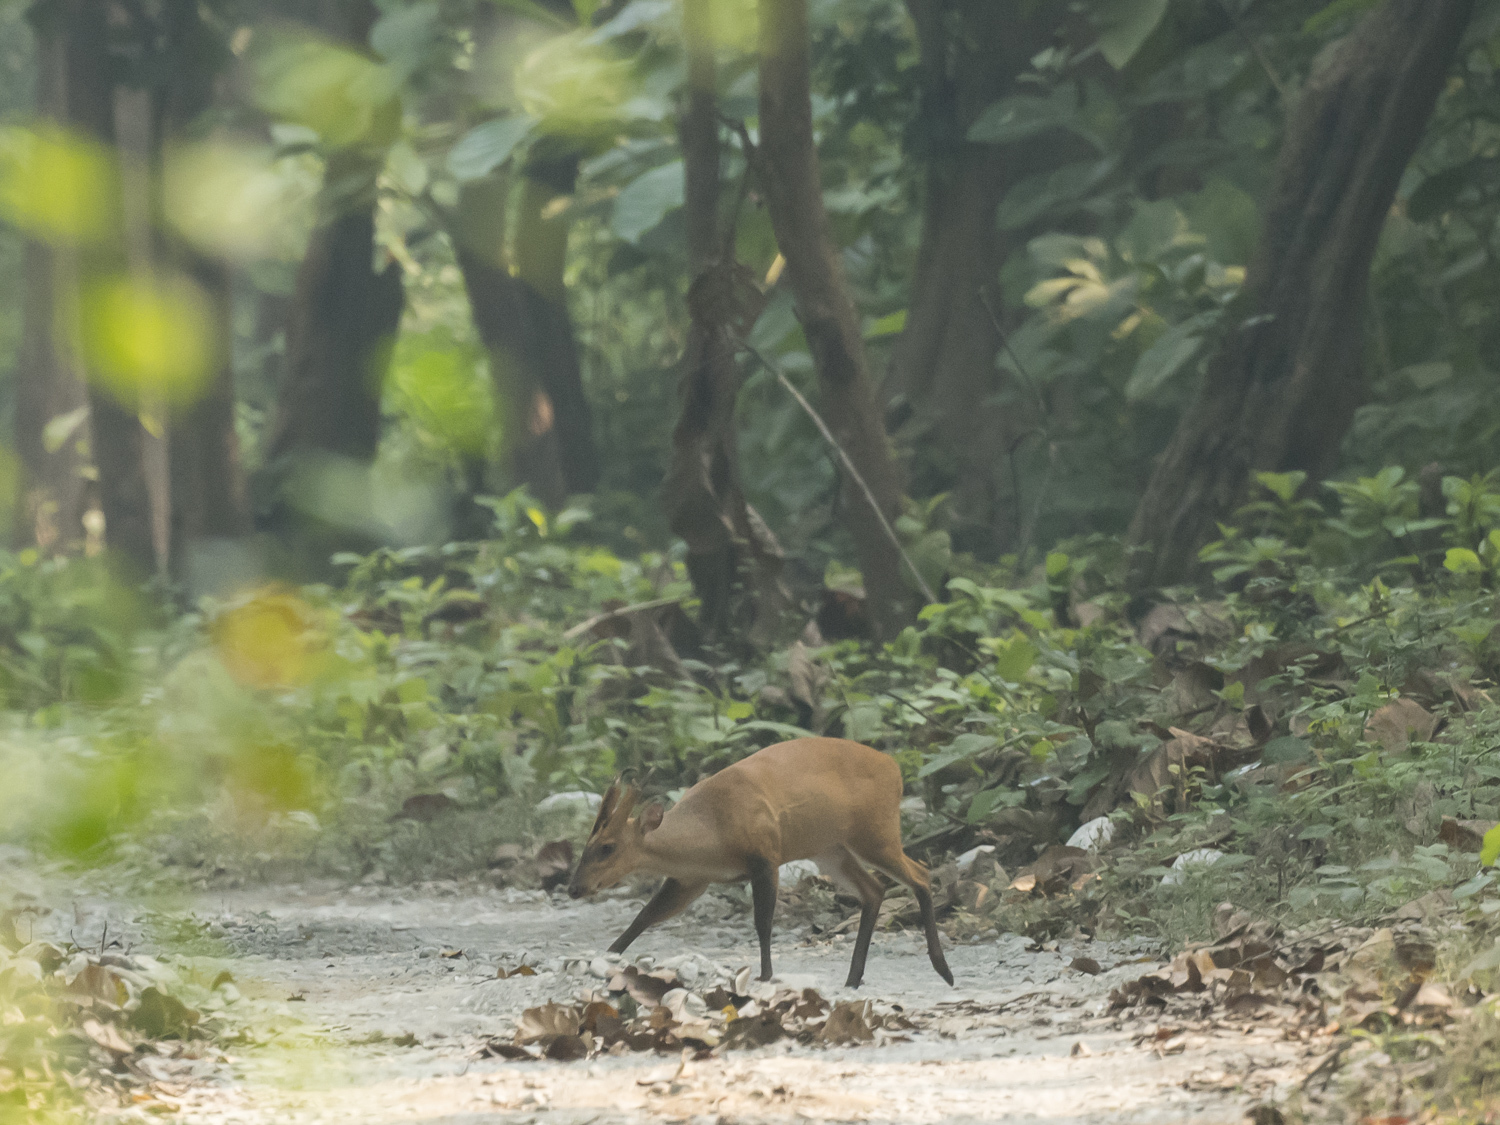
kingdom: Animalia
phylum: Chordata
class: Mammalia
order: Artiodactyla
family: Cervidae
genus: Muntiacus
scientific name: Muntiacus muntjak
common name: Indian muntjac
